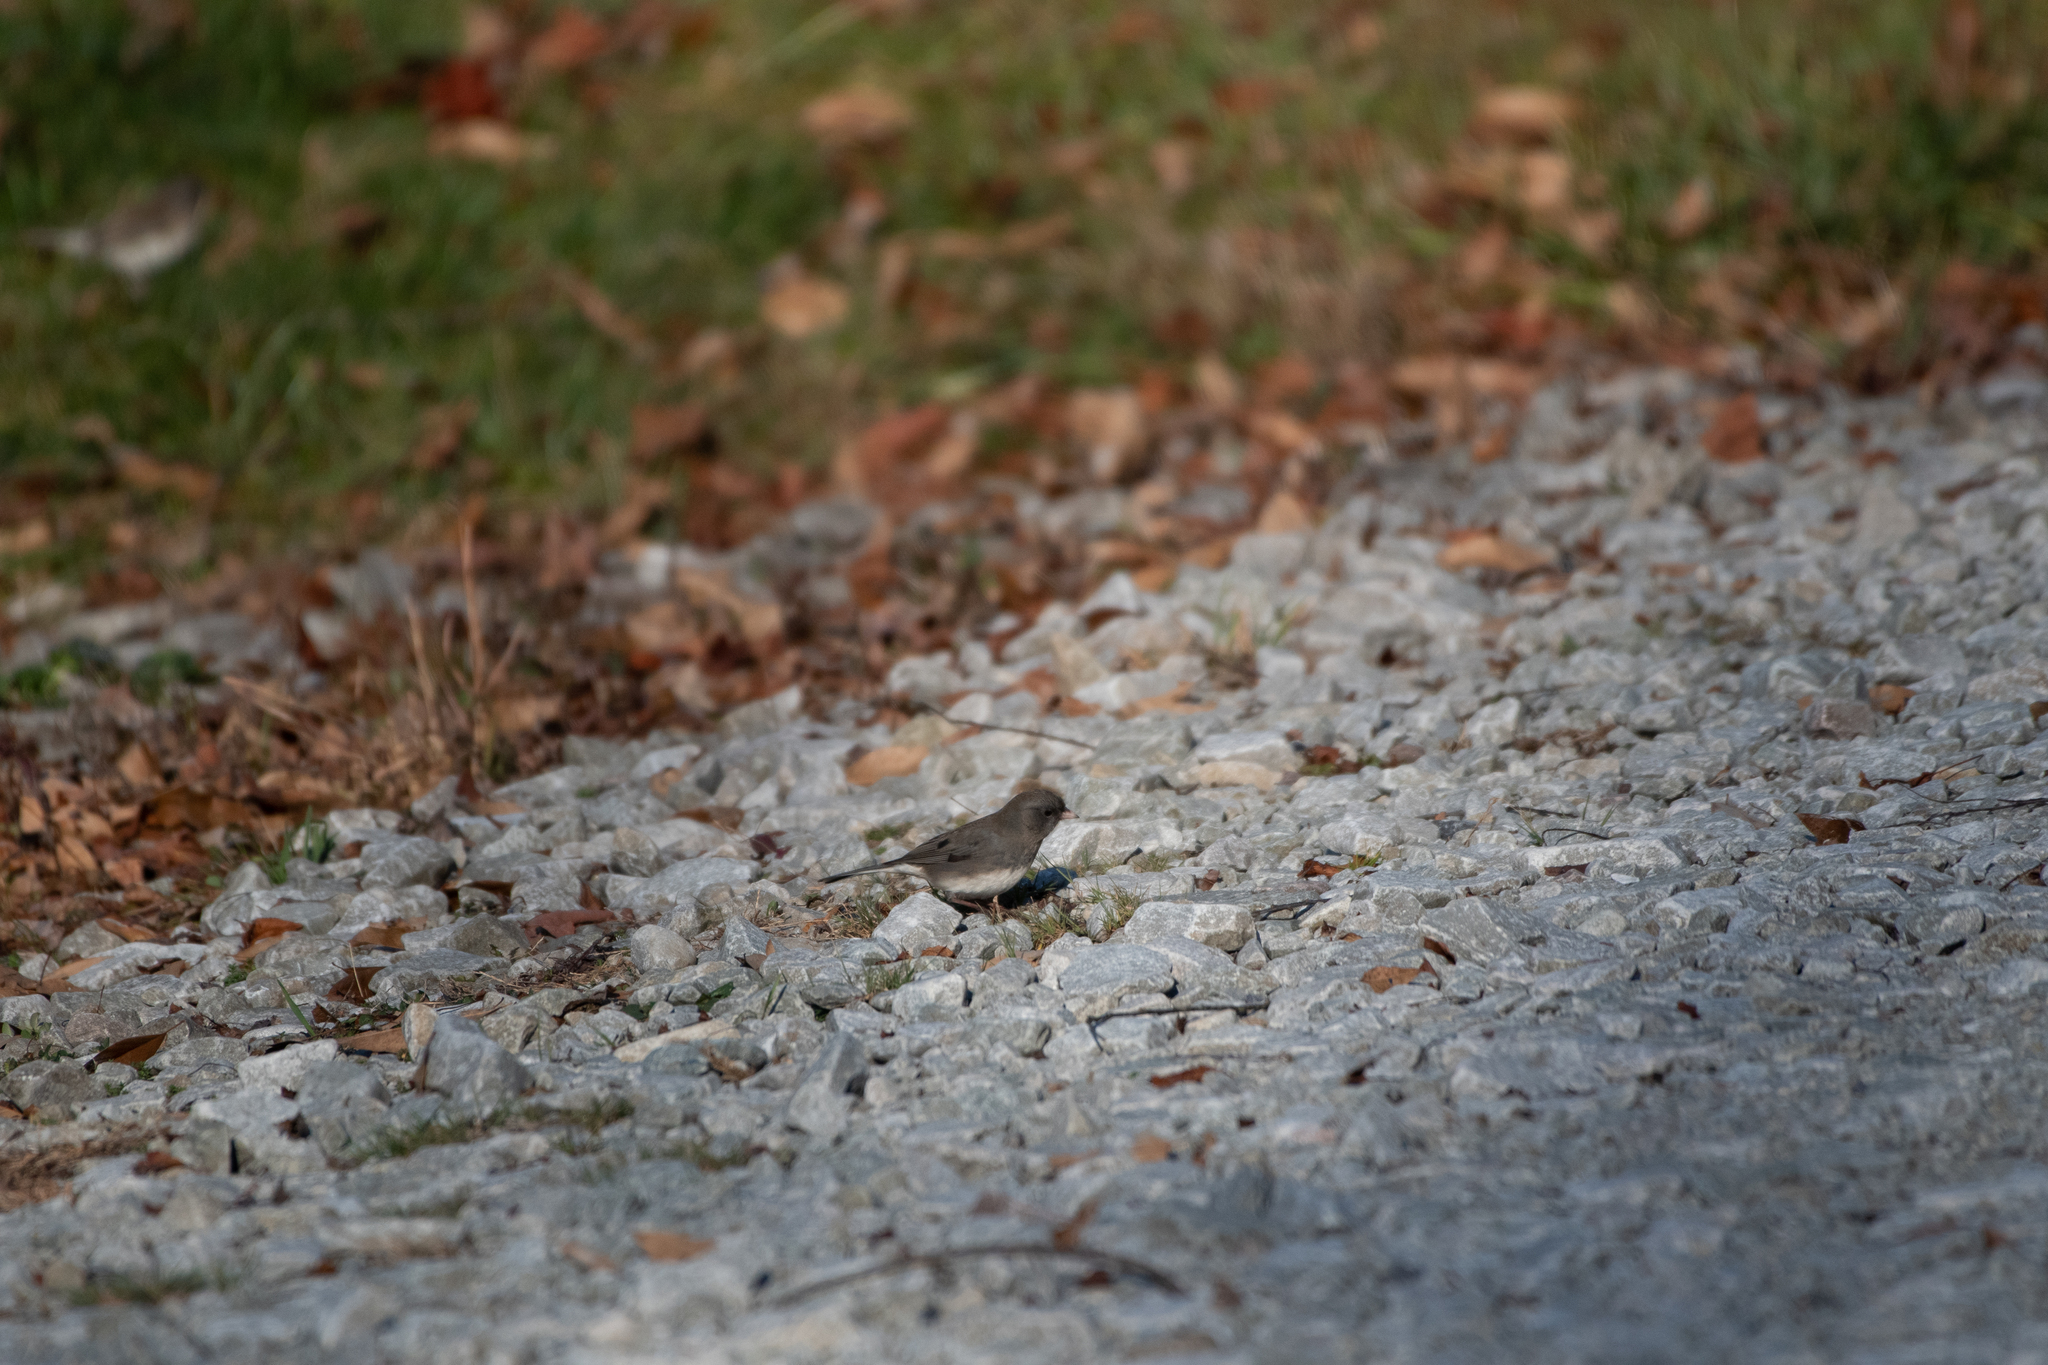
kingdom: Animalia
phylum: Chordata
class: Aves
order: Passeriformes
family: Passerellidae
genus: Junco
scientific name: Junco hyemalis
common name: Dark-eyed junco
